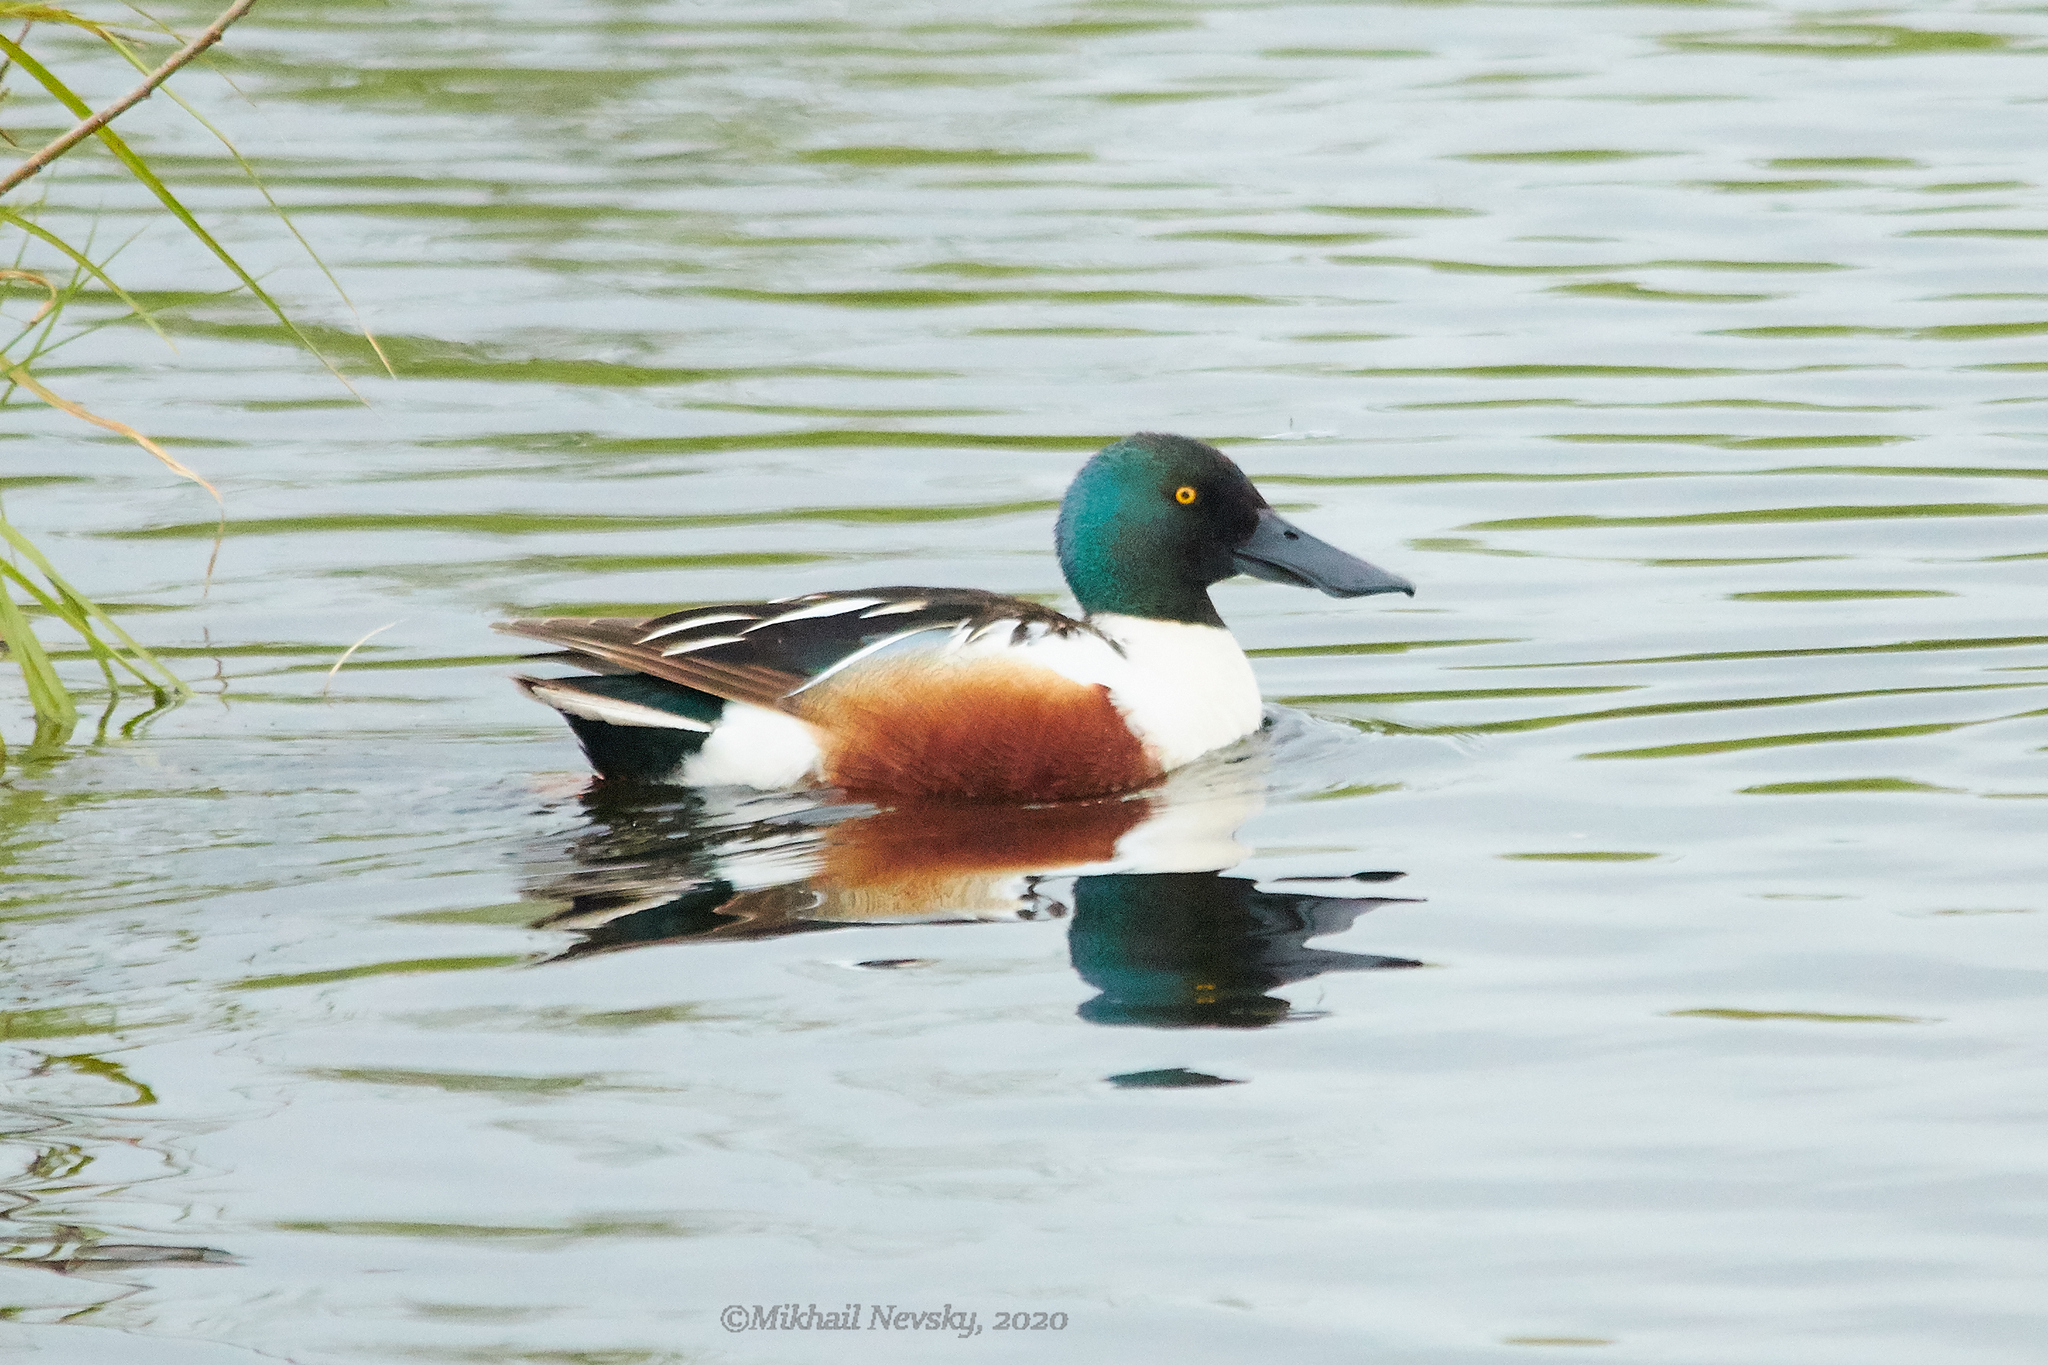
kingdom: Animalia
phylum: Chordata
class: Aves
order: Anseriformes
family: Anatidae
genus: Spatula
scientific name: Spatula clypeata
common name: Northern shoveler
